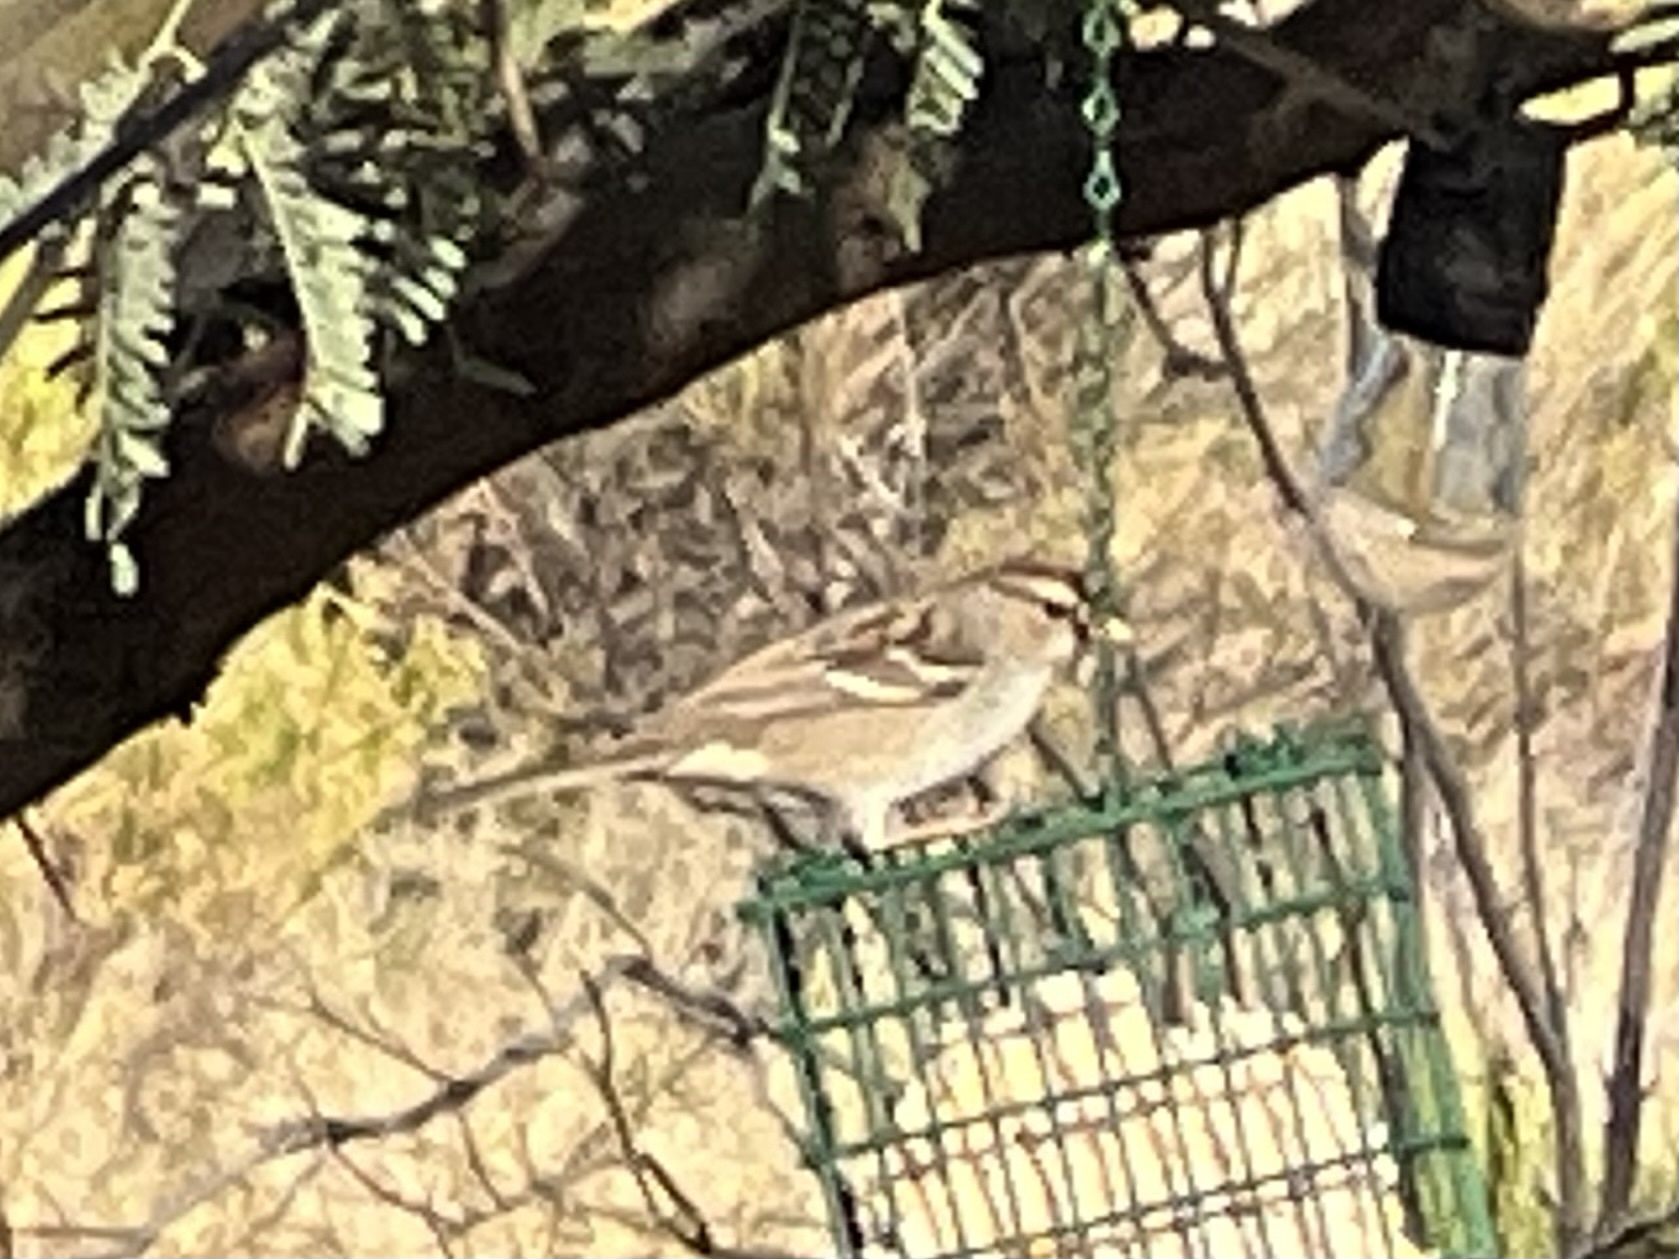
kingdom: Animalia
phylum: Chordata
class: Aves
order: Passeriformes
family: Passerellidae
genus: Zonotrichia
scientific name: Zonotrichia leucophrys
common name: White-crowned sparrow
